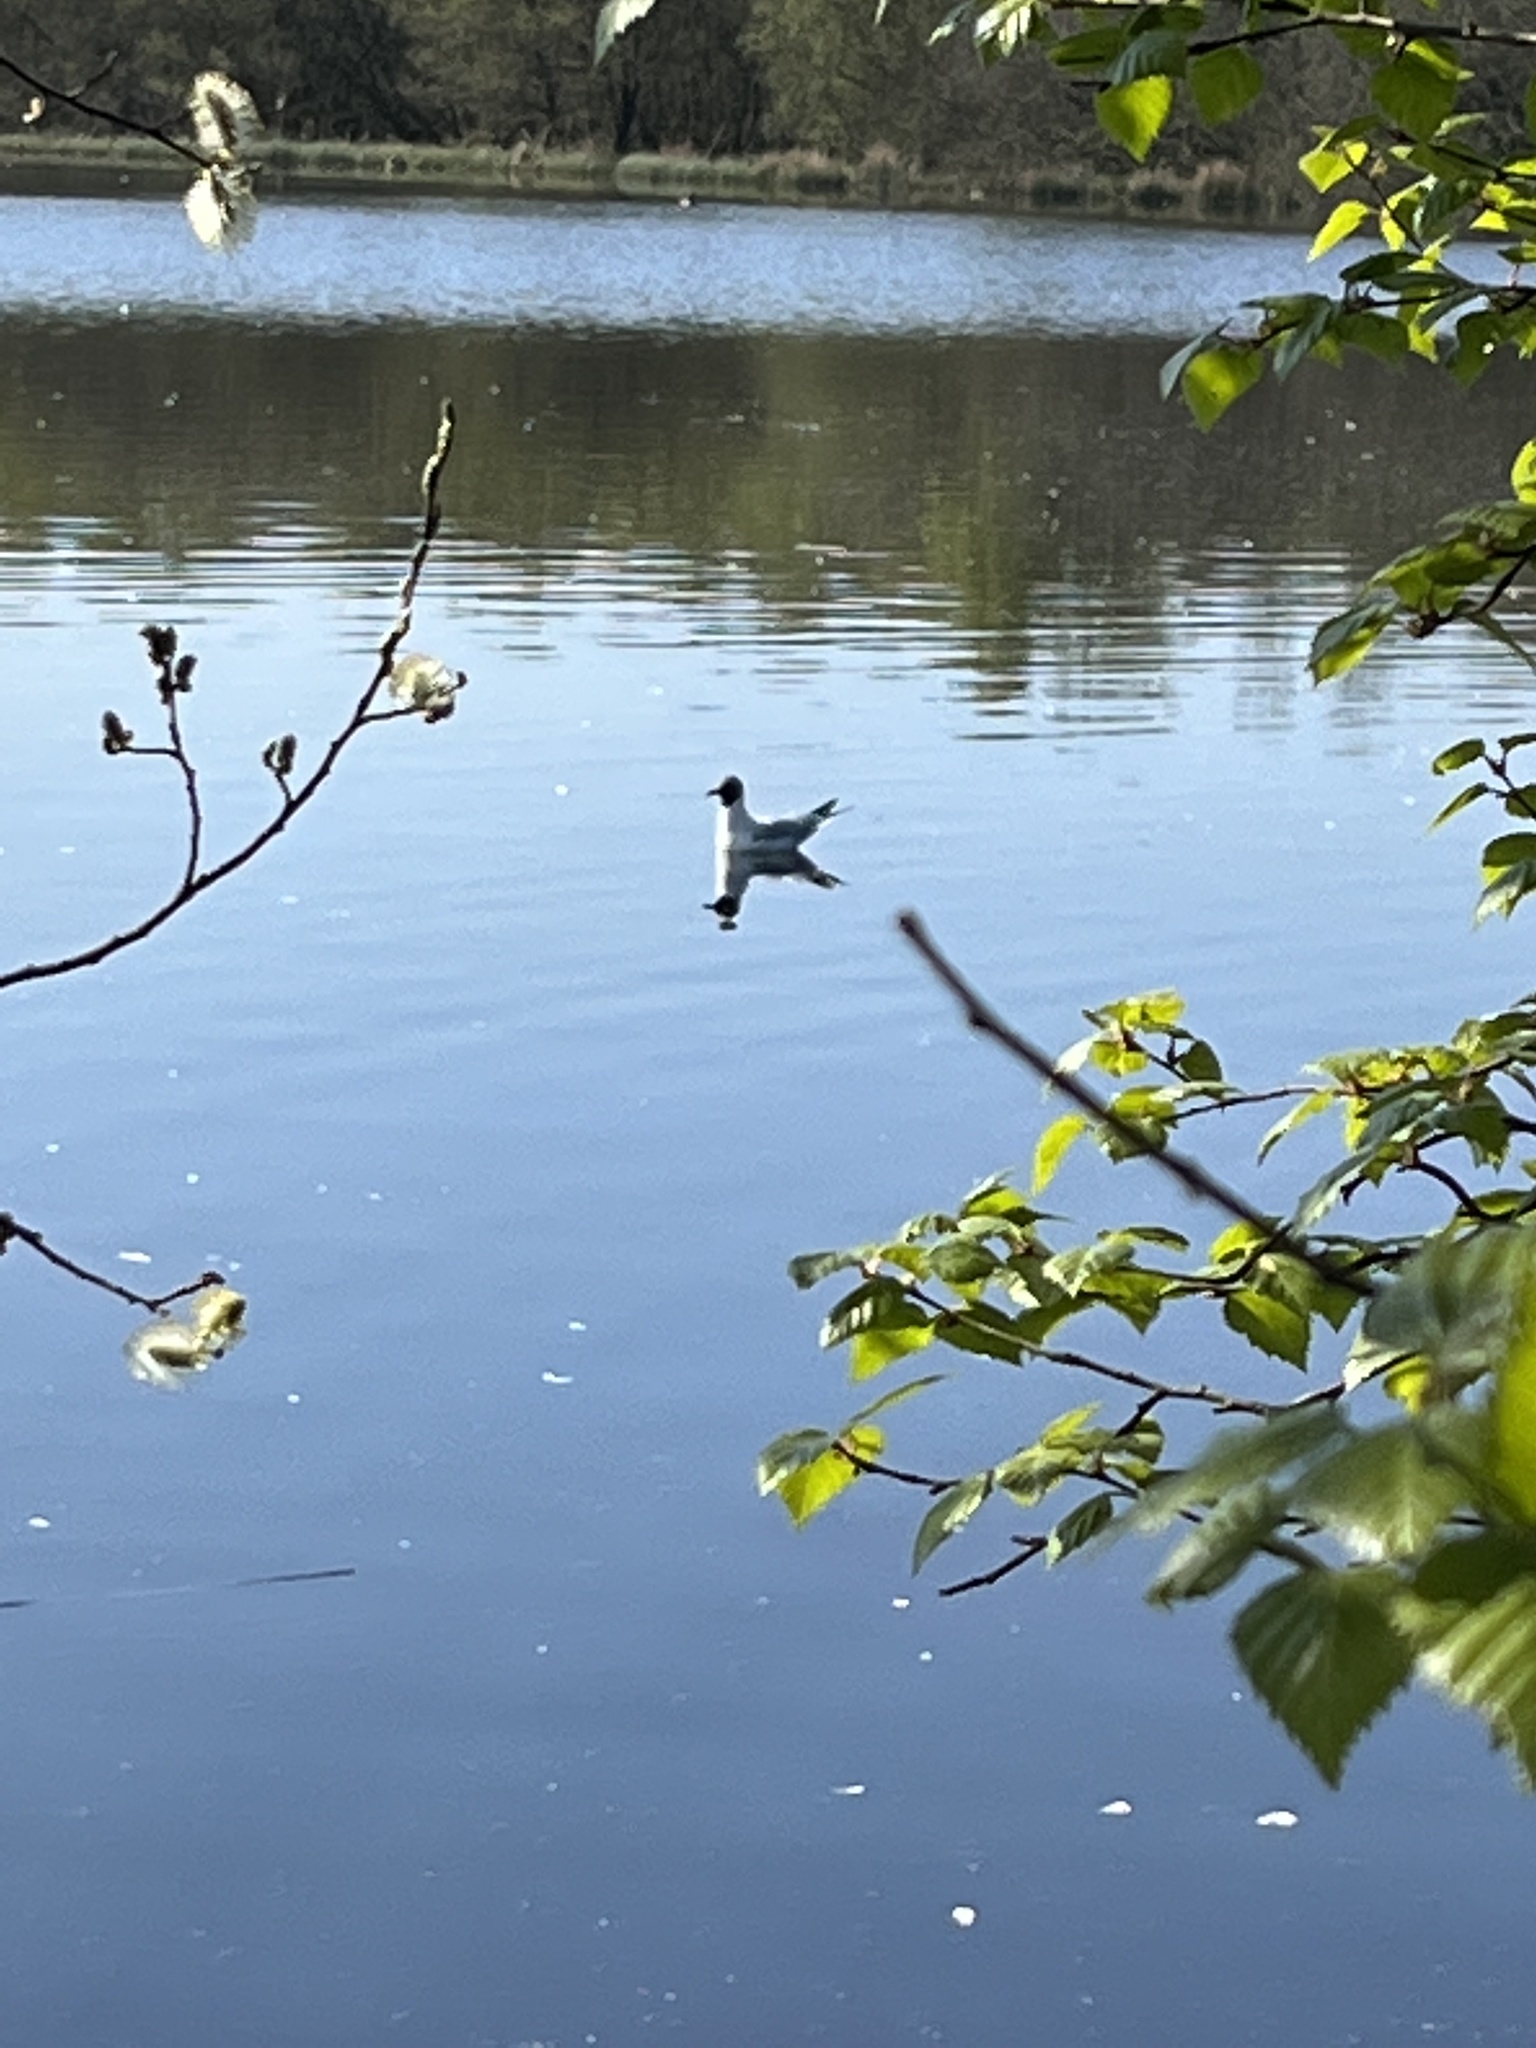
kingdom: Animalia
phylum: Chordata
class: Aves
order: Charadriiformes
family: Laridae
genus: Chroicocephalus
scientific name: Chroicocephalus ridibundus
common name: Black-headed gull
